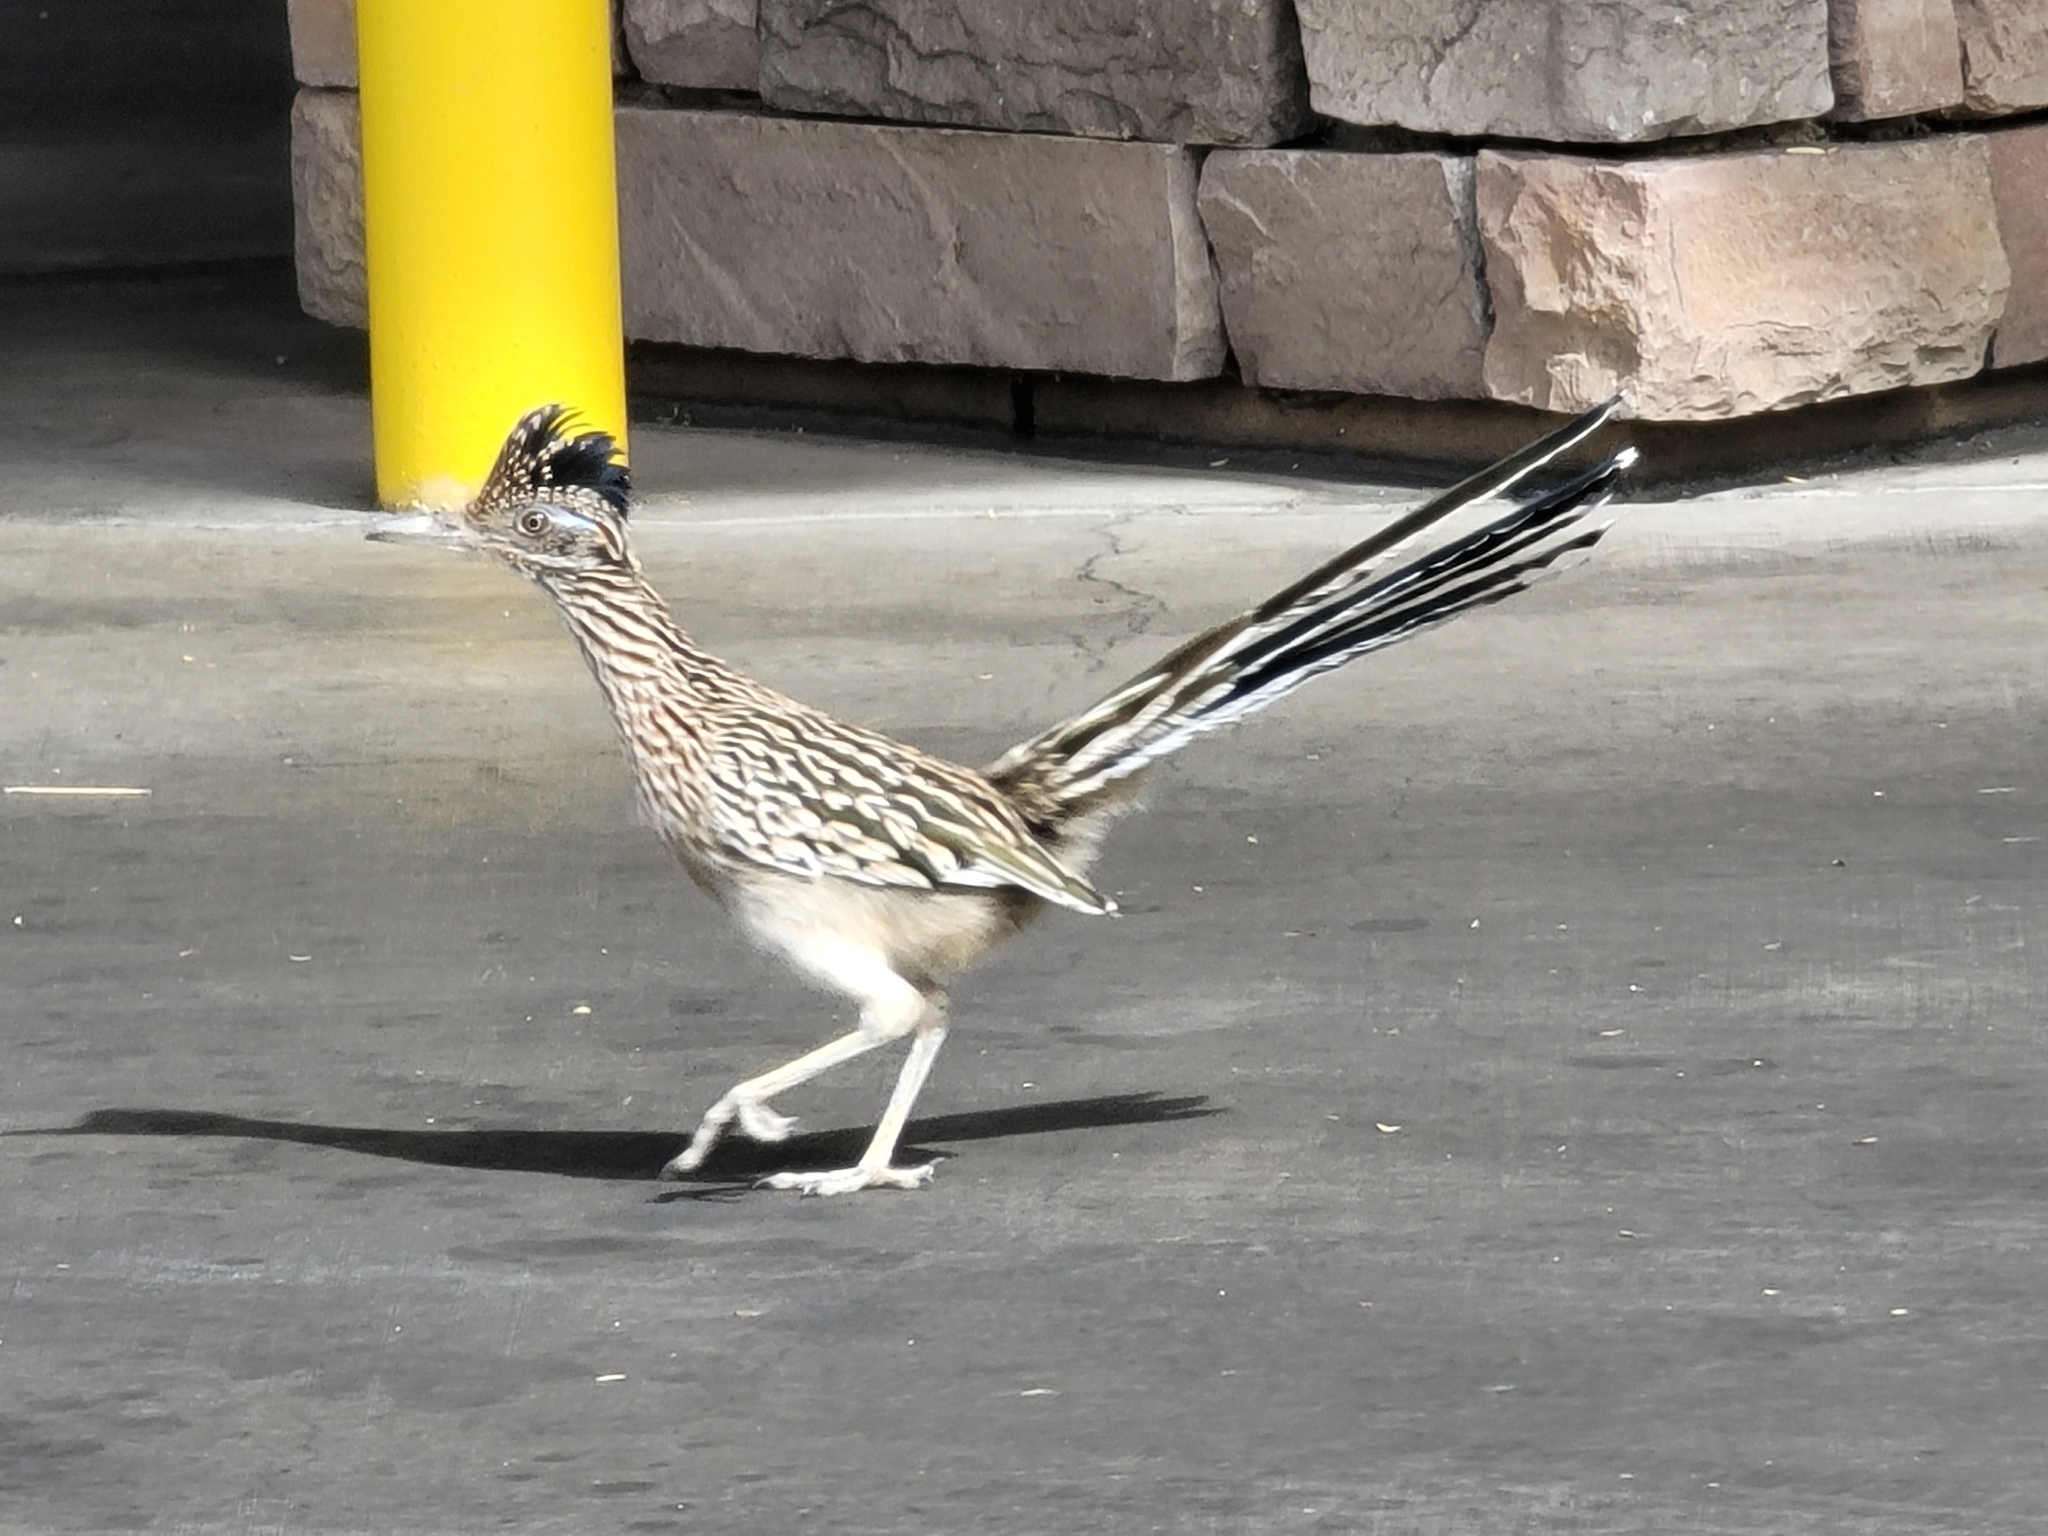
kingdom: Animalia
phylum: Chordata
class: Aves
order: Cuculiformes
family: Cuculidae
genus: Geococcyx
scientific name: Geococcyx californianus
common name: Greater roadrunner
